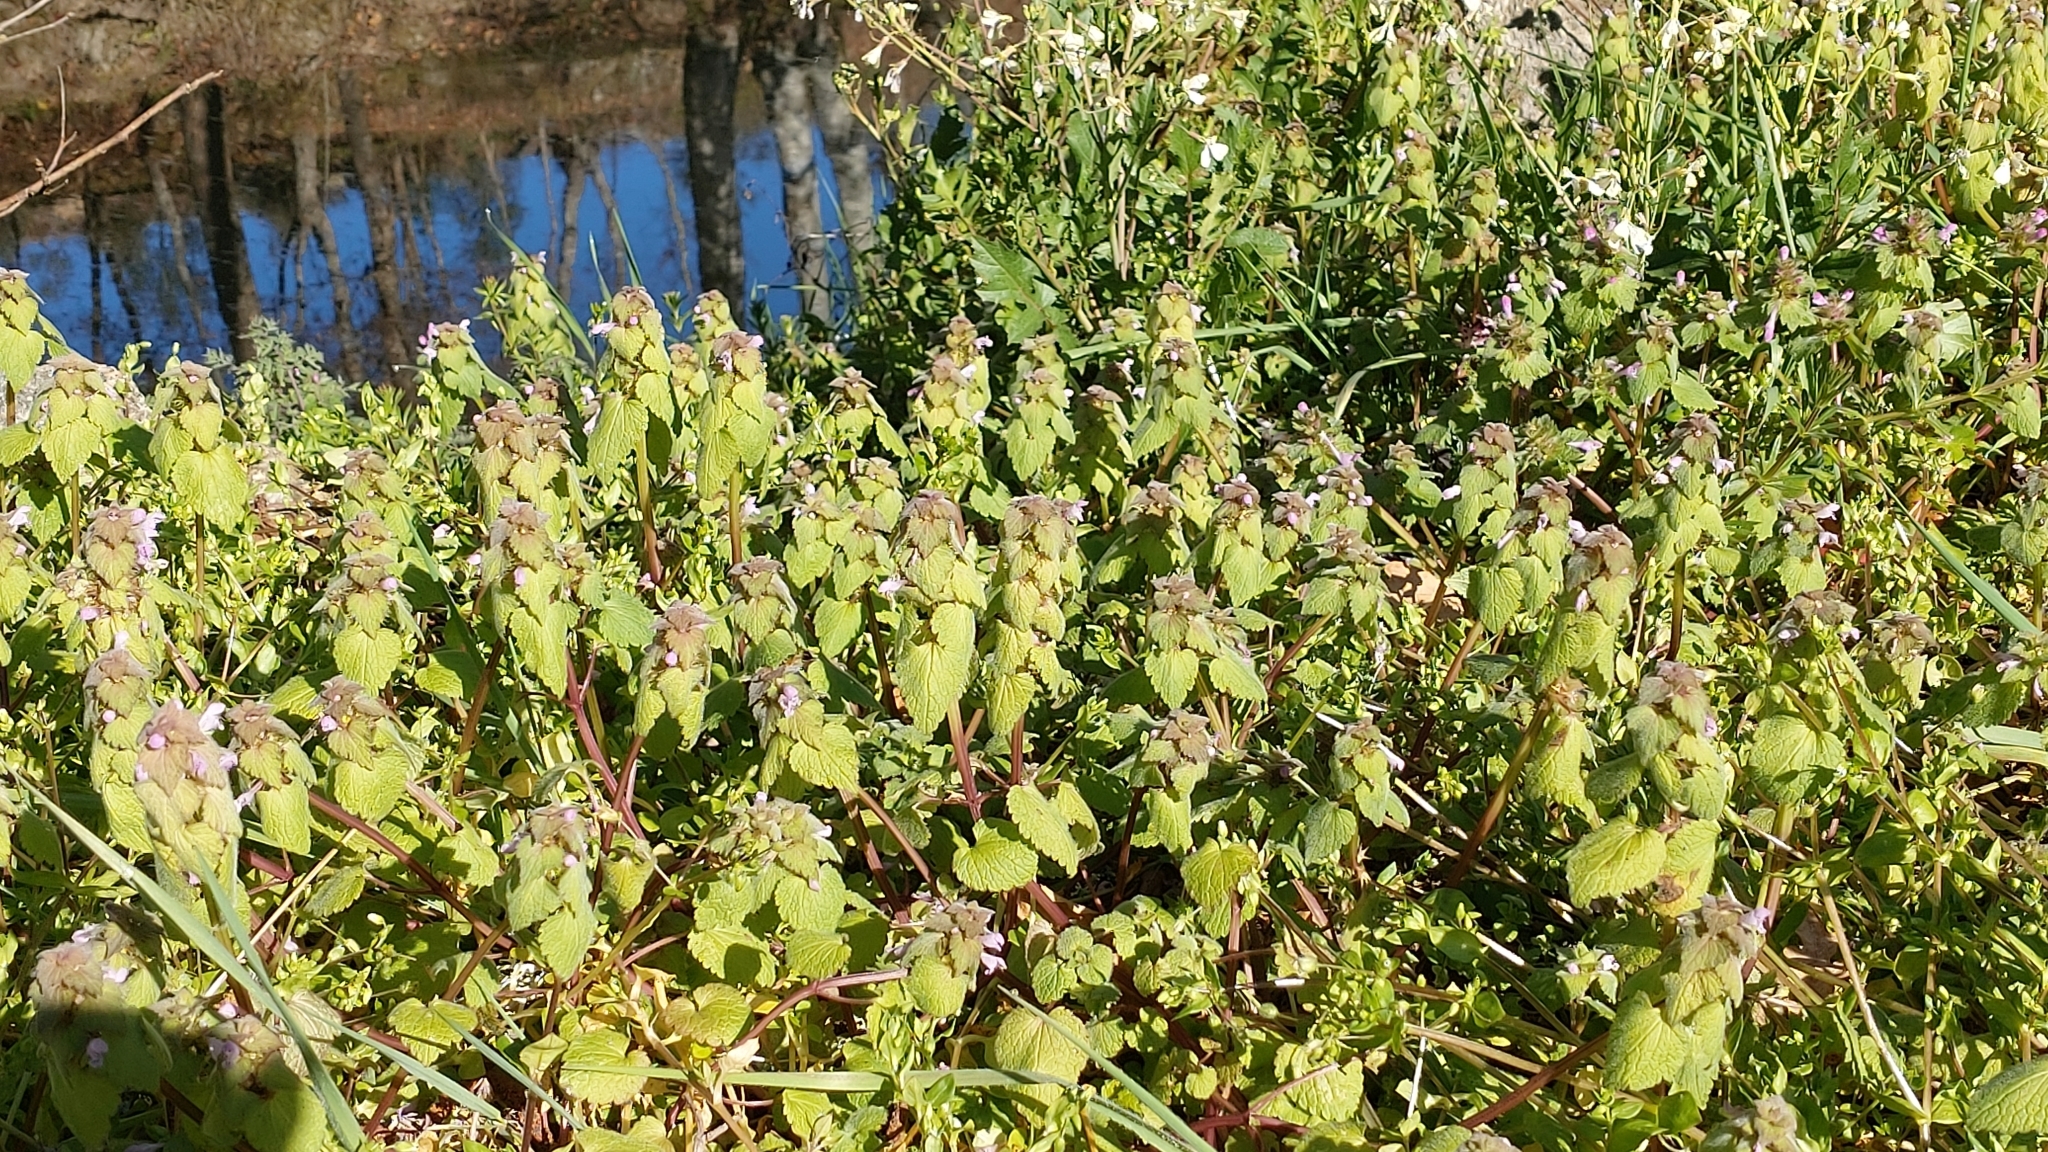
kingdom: Plantae
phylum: Tracheophyta
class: Magnoliopsida
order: Lamiales
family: Lamiaceae
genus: Lamium
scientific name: Lamium purpureum
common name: Red dead-nettle
